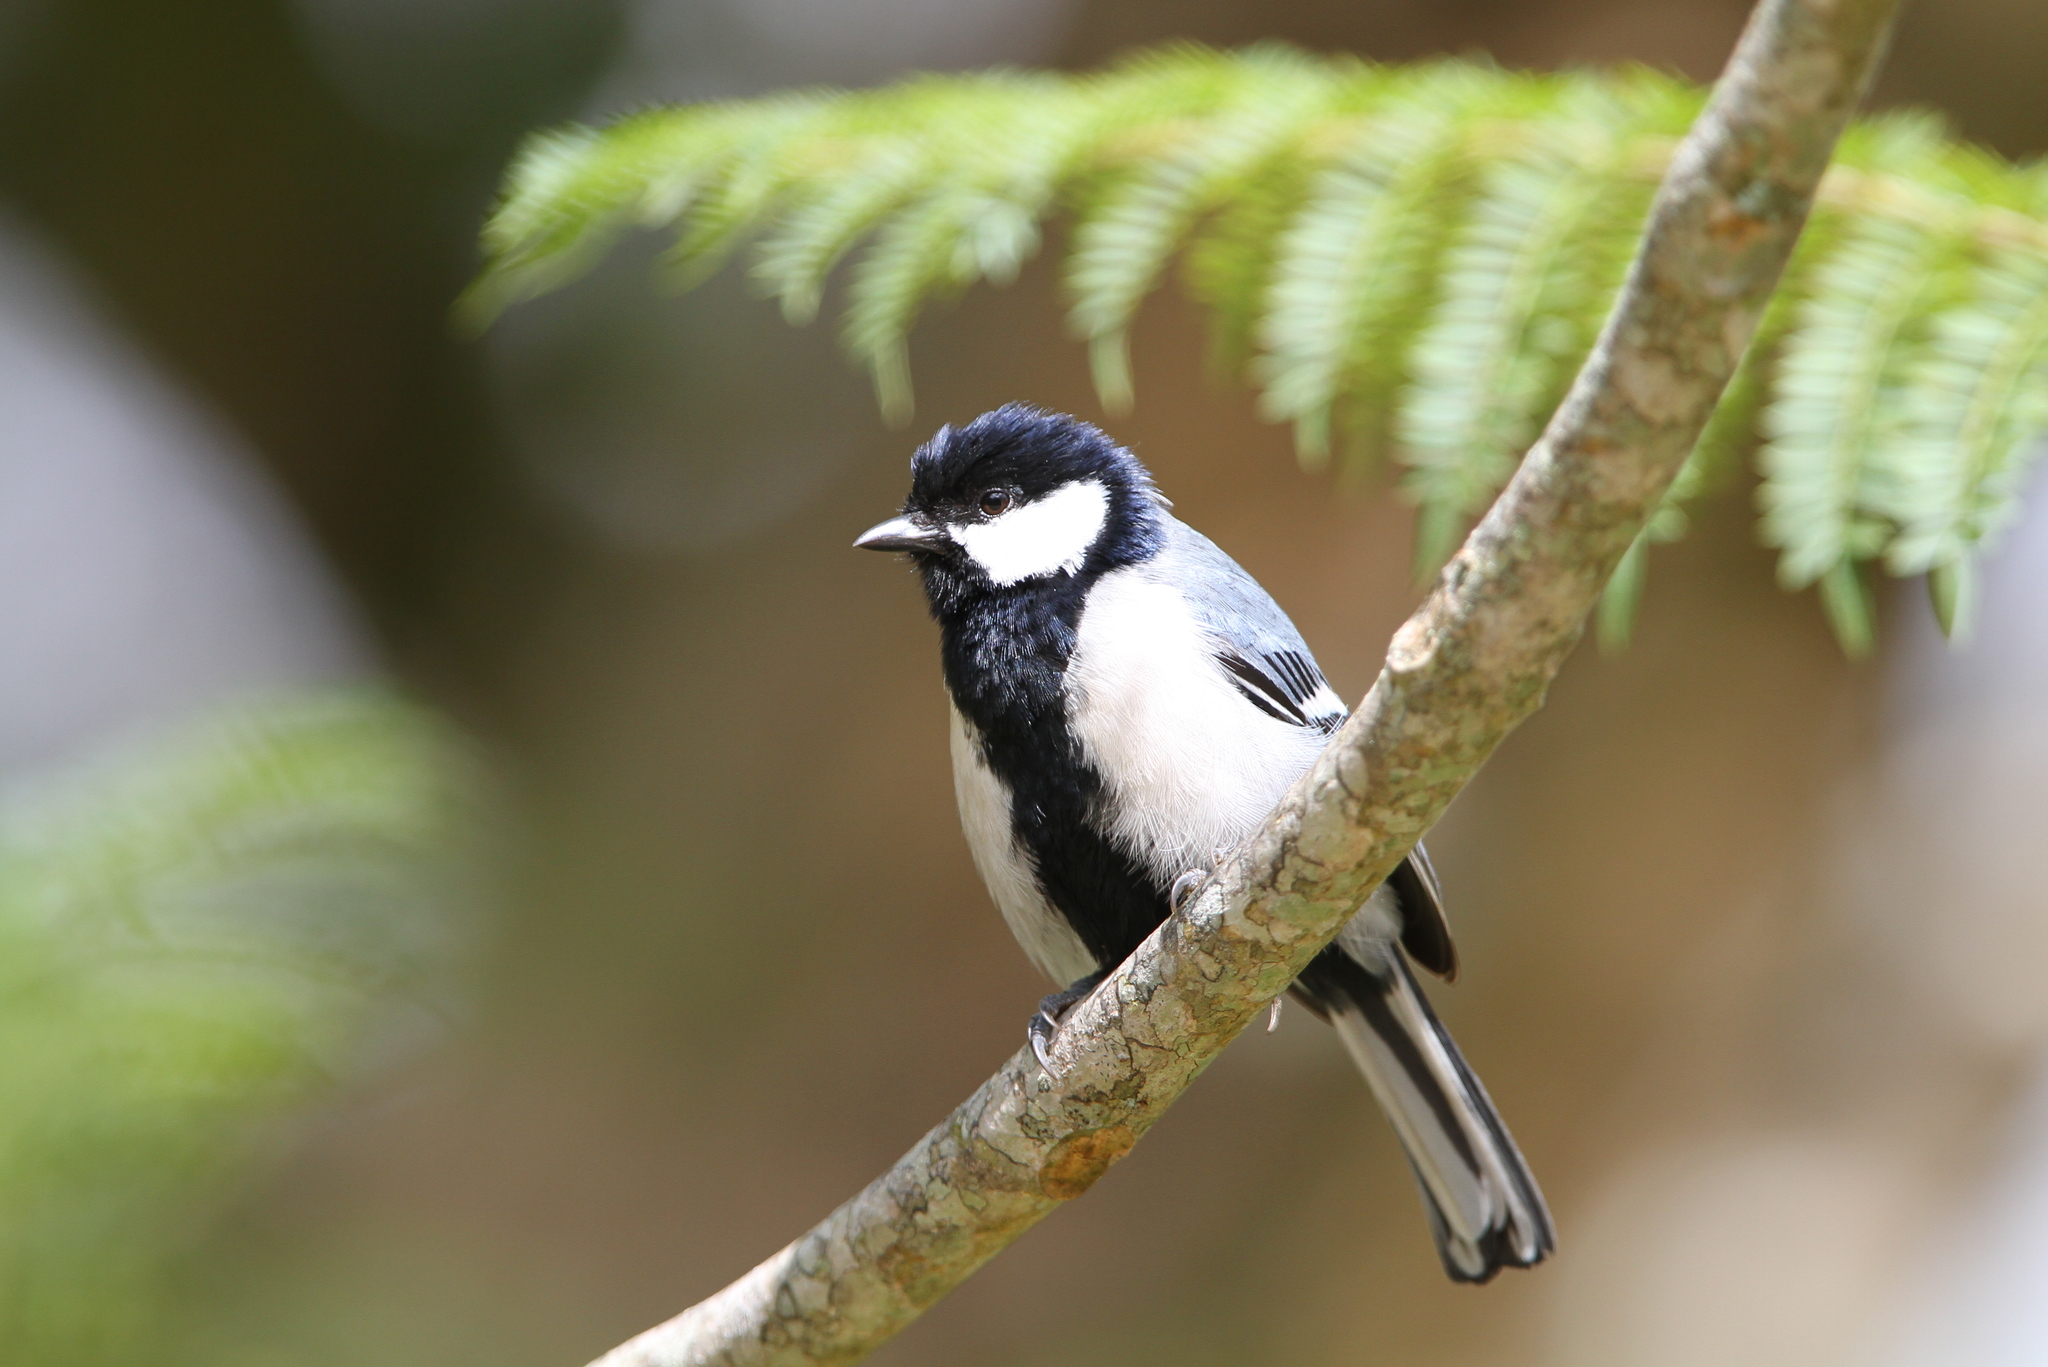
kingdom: Animalia
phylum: Chordata
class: Aves
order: Passeriformes
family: Paridae
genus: Parus
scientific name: Parus cinereus
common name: Cinereous tit
